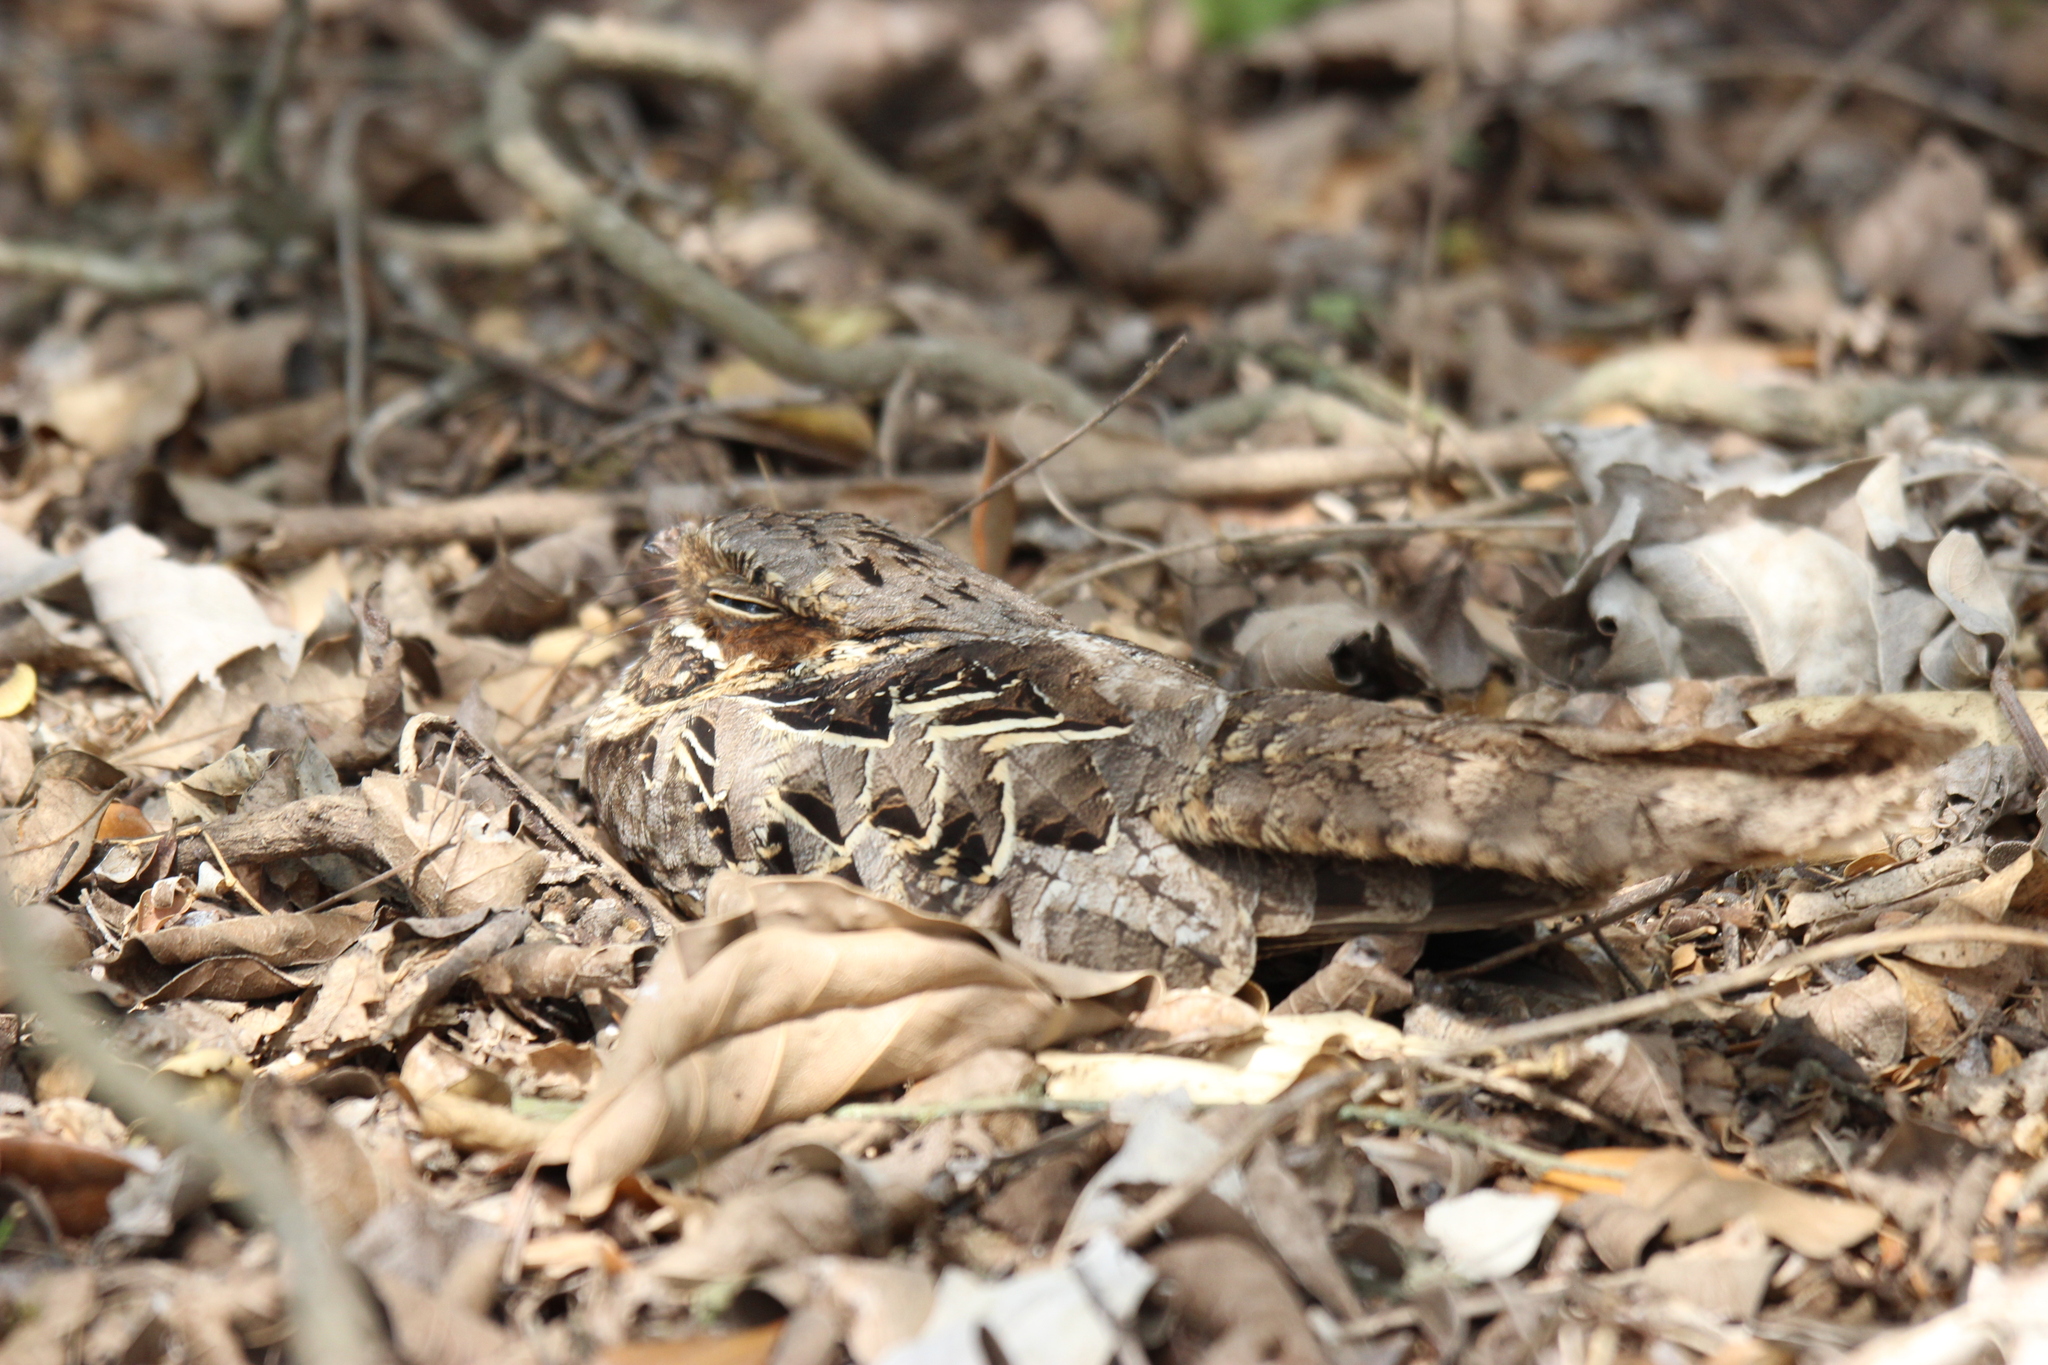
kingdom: Animalia
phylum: Chordata
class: Aves
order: Caprimulgiformes
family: Caprimulgidae
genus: Nyctidromus
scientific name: Nyctidromus albicollis
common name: Pauraque
